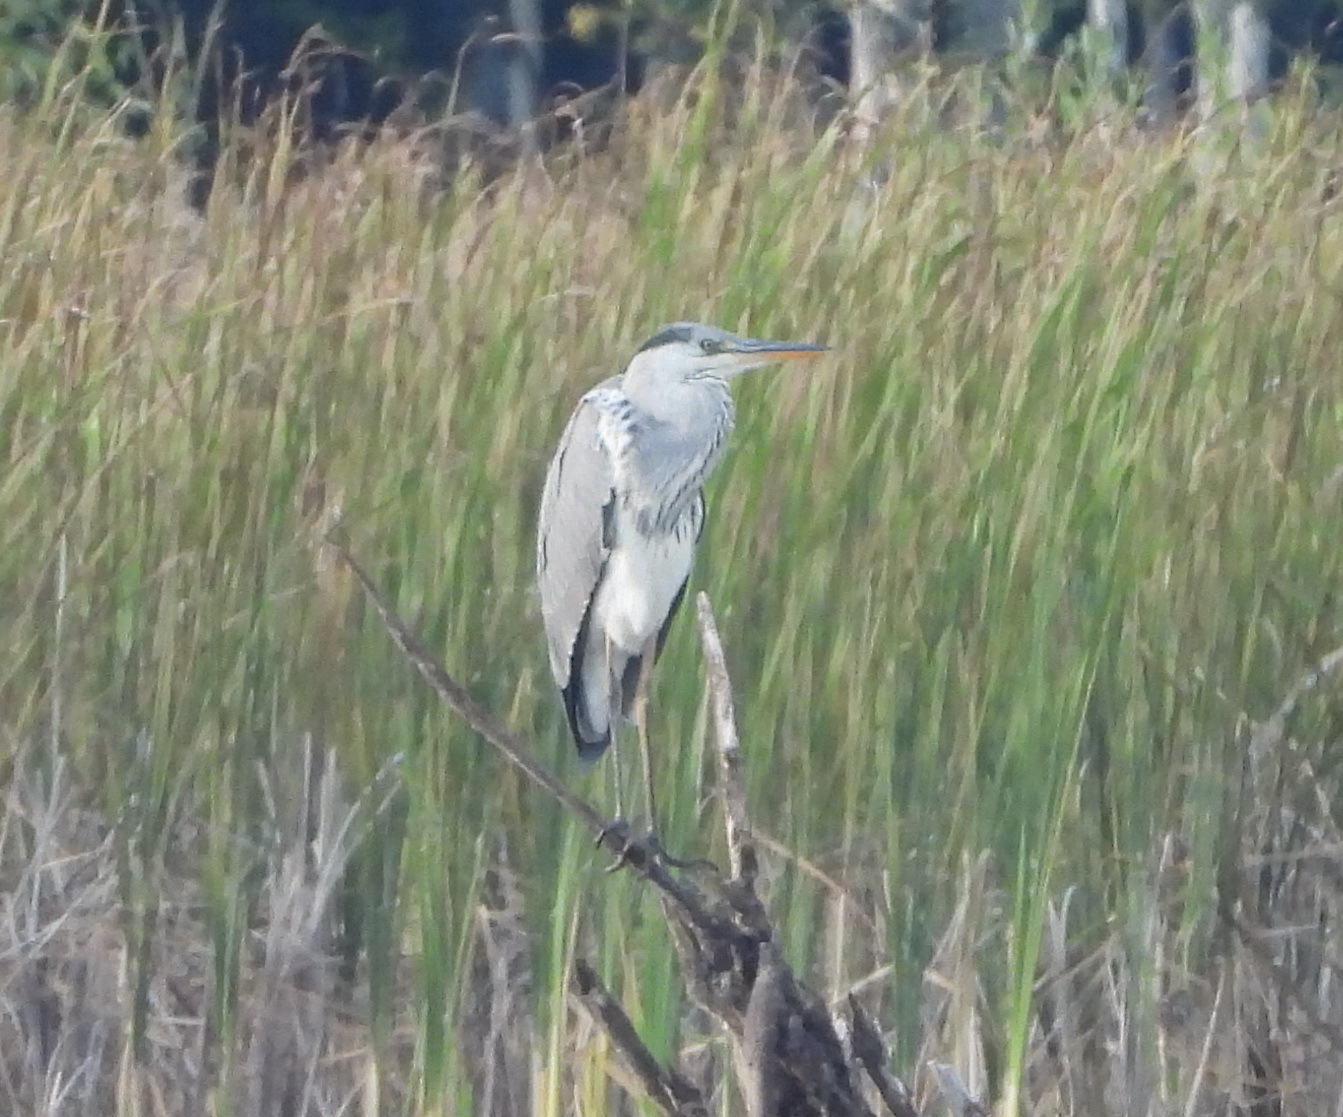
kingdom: Animalia
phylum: Chordata
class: Aves
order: Pelecaniformes
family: Ardeidae
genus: Ardea
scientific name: Ardea cinerea
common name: Grey heron
